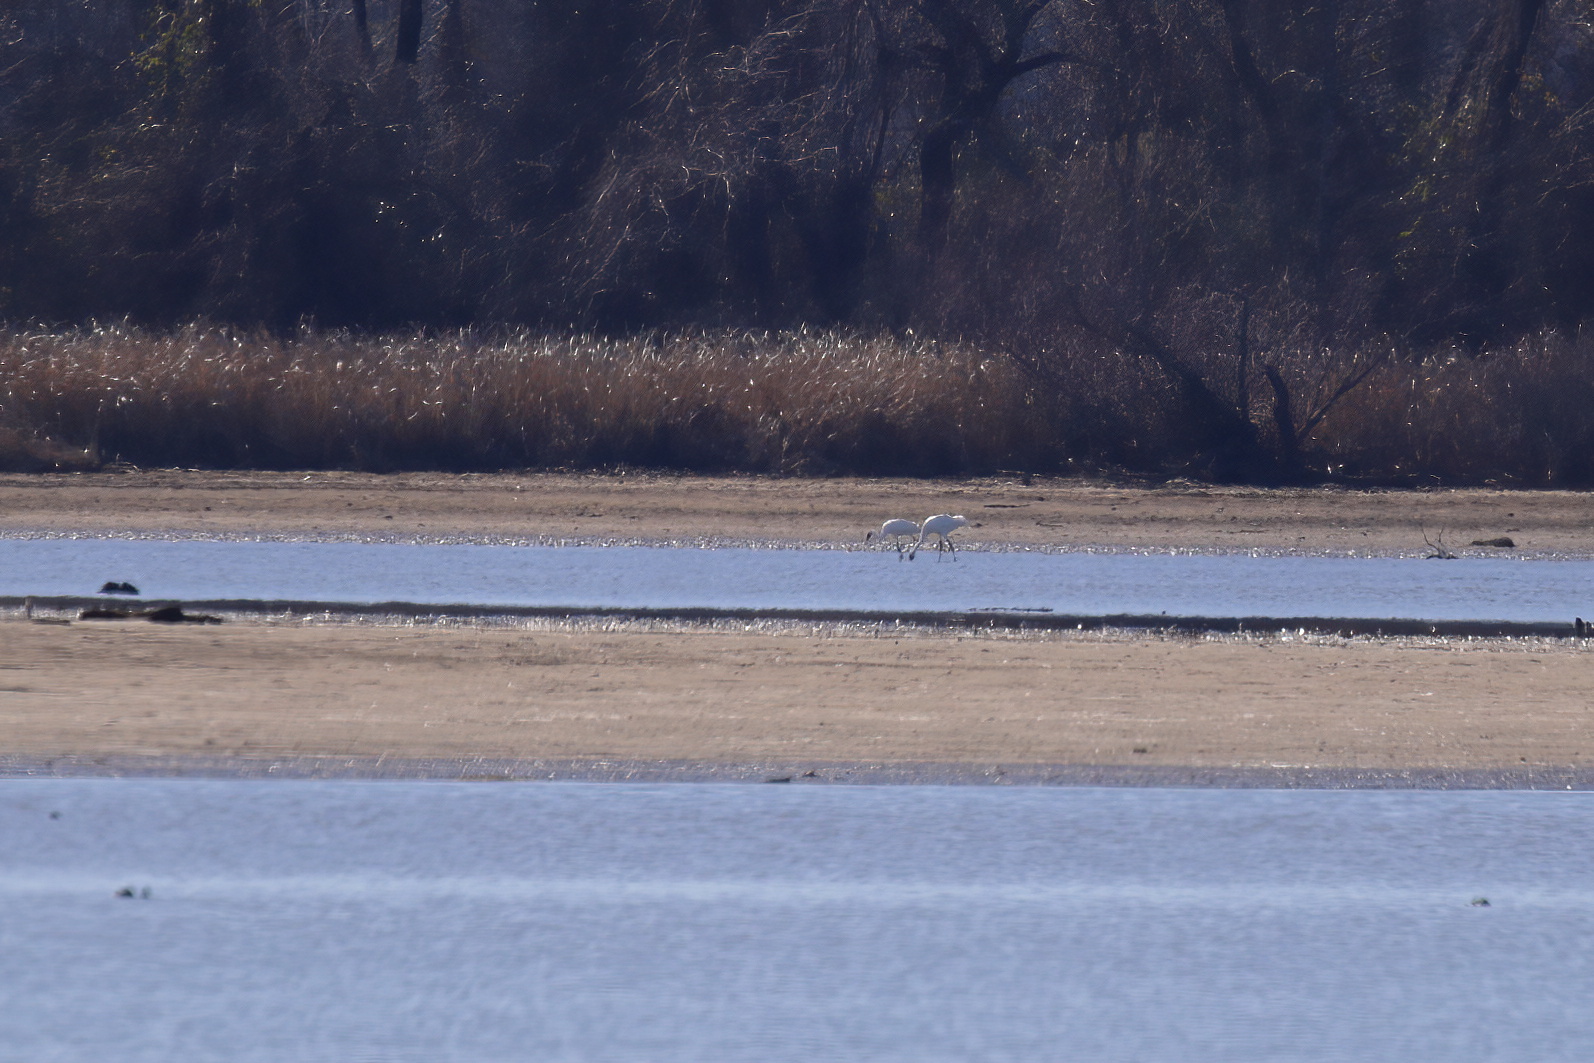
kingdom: Animalia
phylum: Chordata
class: Aves
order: Gruiformes
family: Gruidae
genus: Grus
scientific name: Grus americana
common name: Whooping crane
